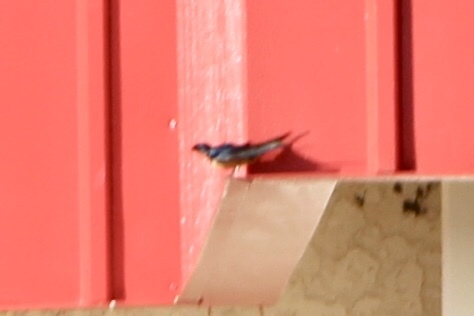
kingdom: Animalia
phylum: Chordata
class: Aves
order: Passeriformes
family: Hirundinidae
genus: Hirundo
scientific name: Hirundo rustica
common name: Barn swallow
